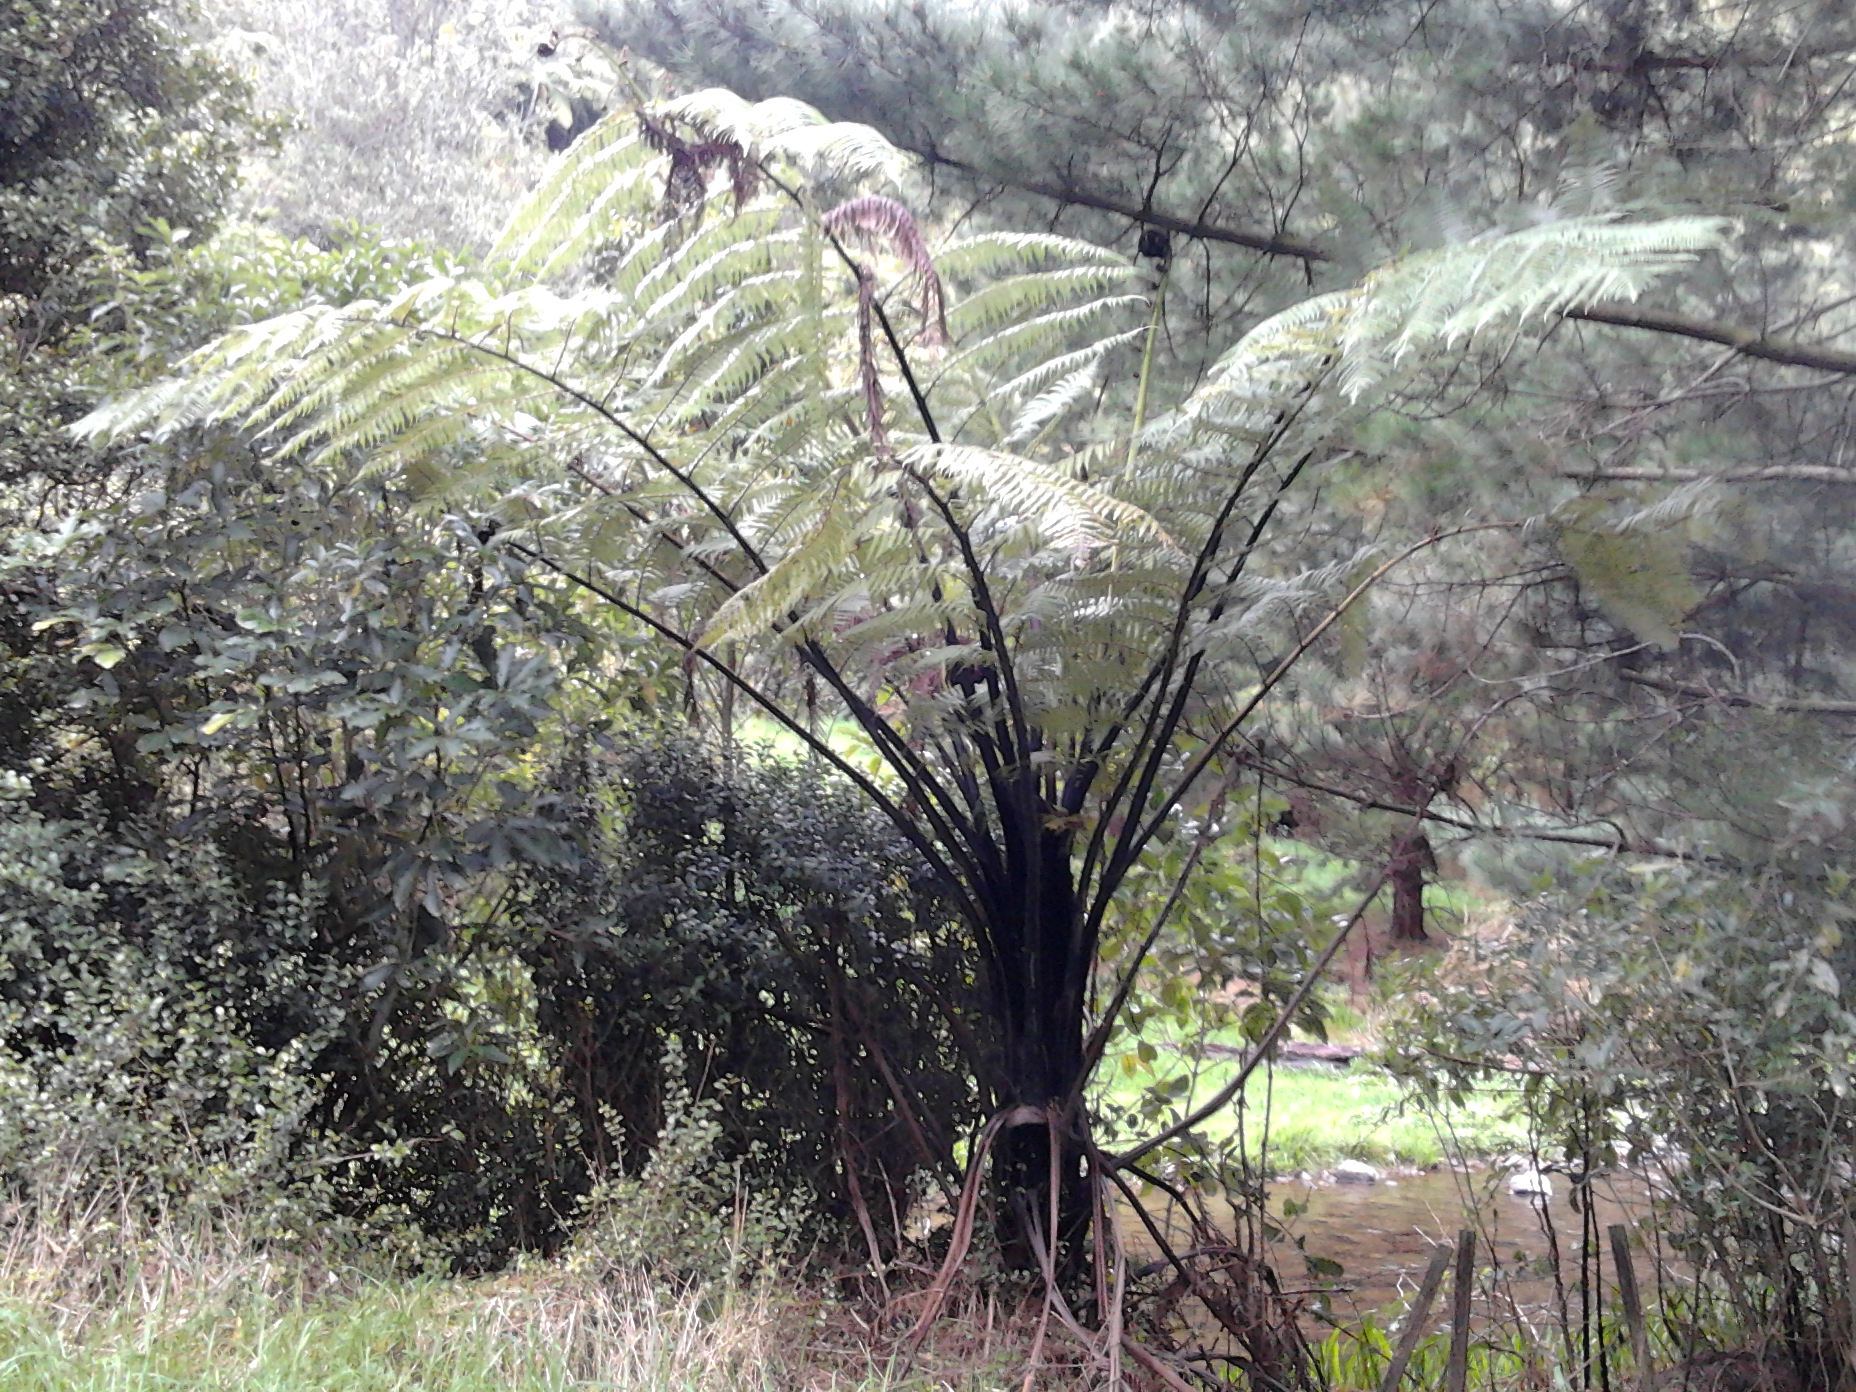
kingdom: Plantae
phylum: Tracheophyta
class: Polypodiopsida
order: Cyatheales
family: Cyatheaceae
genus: Sphaeropteris
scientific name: Sphaeropteris medullaris
